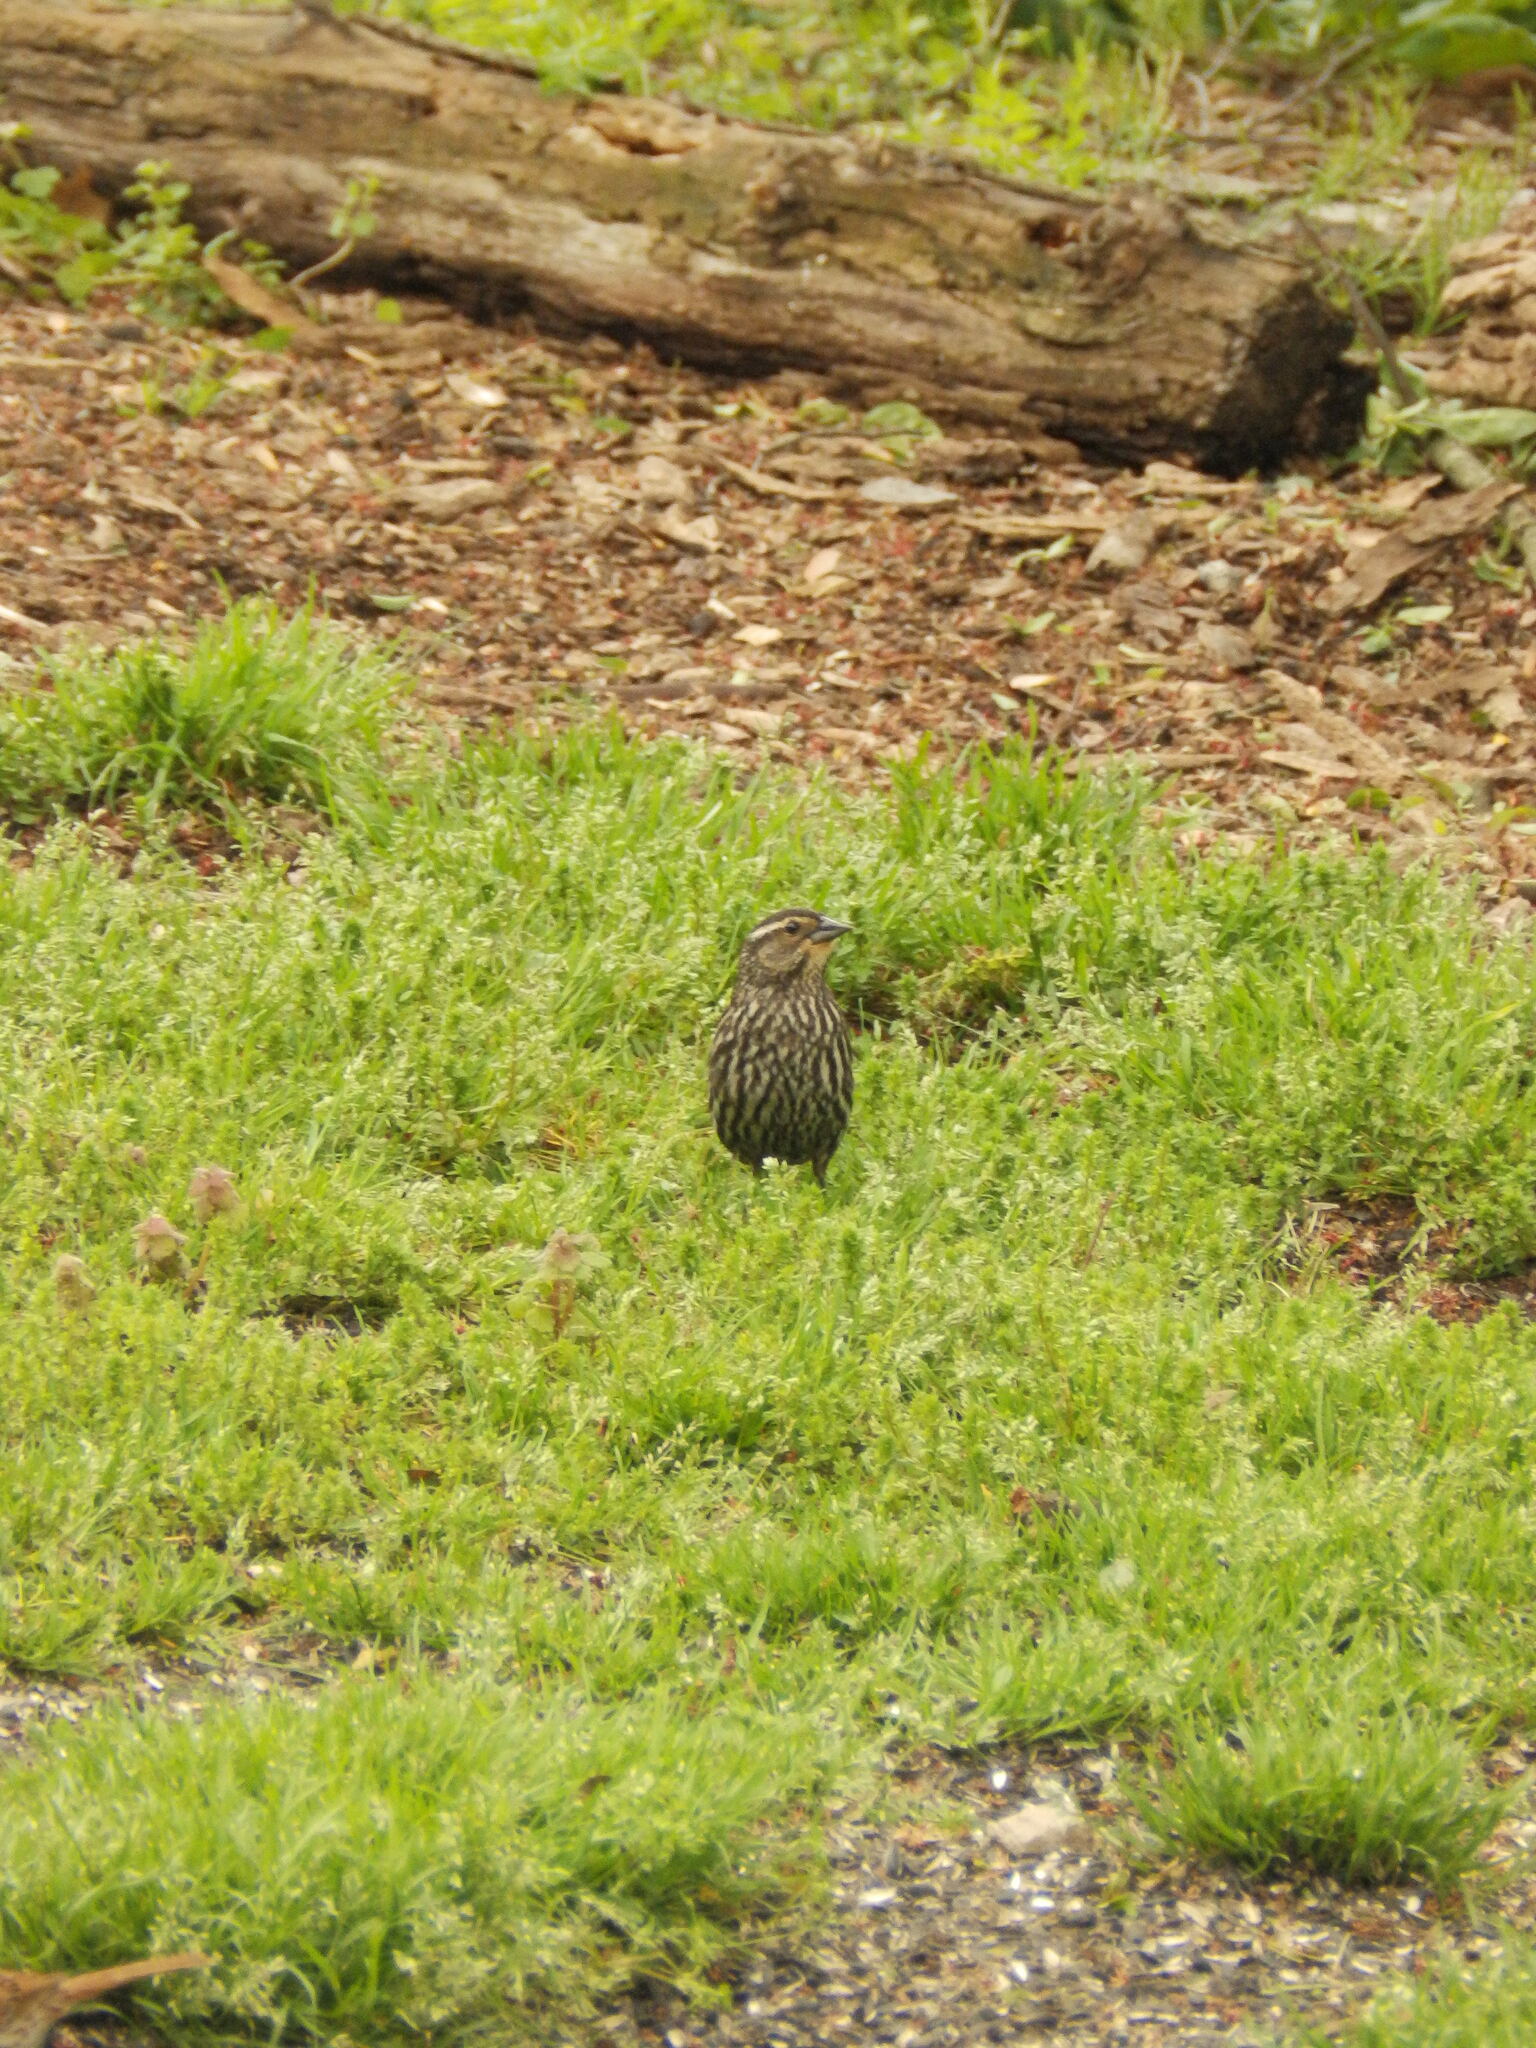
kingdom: Animalia
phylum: Chordata
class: Aves
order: Passeriformes
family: Icteridae
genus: Agelaius
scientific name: Agelaius phoeniceus
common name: Red-winged blackbird
